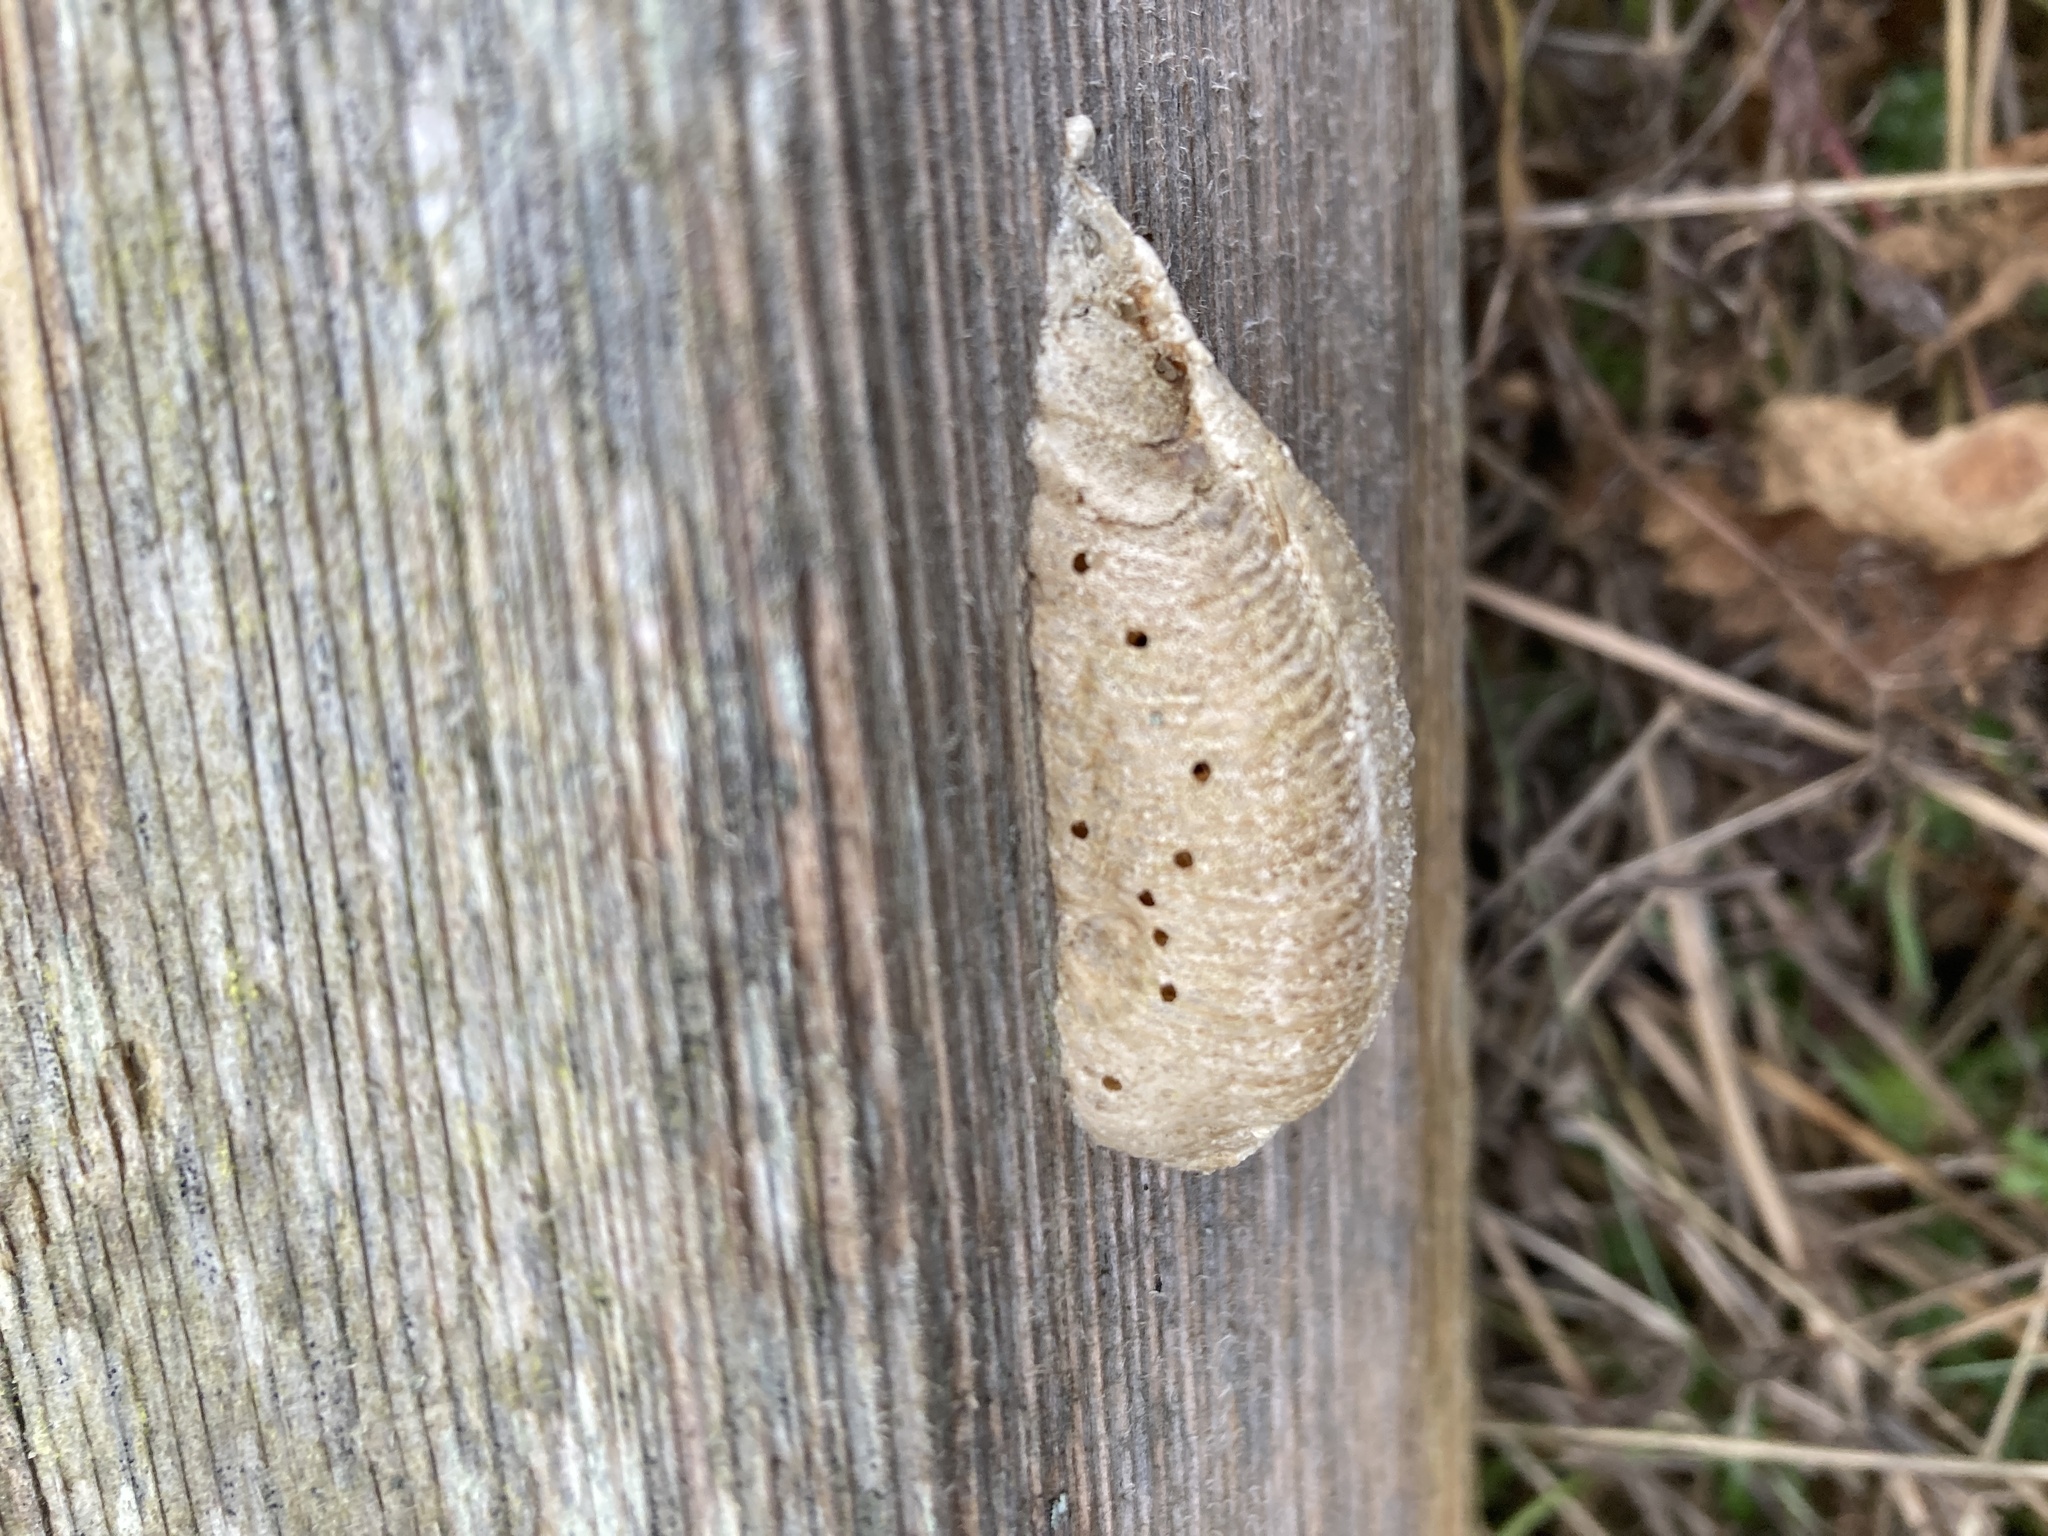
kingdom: Animalia
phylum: Arthropoda
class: Insecta
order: Mantodea
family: Mantidae
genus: Mantis
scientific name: Mantis religiosa
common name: Praying mantis
